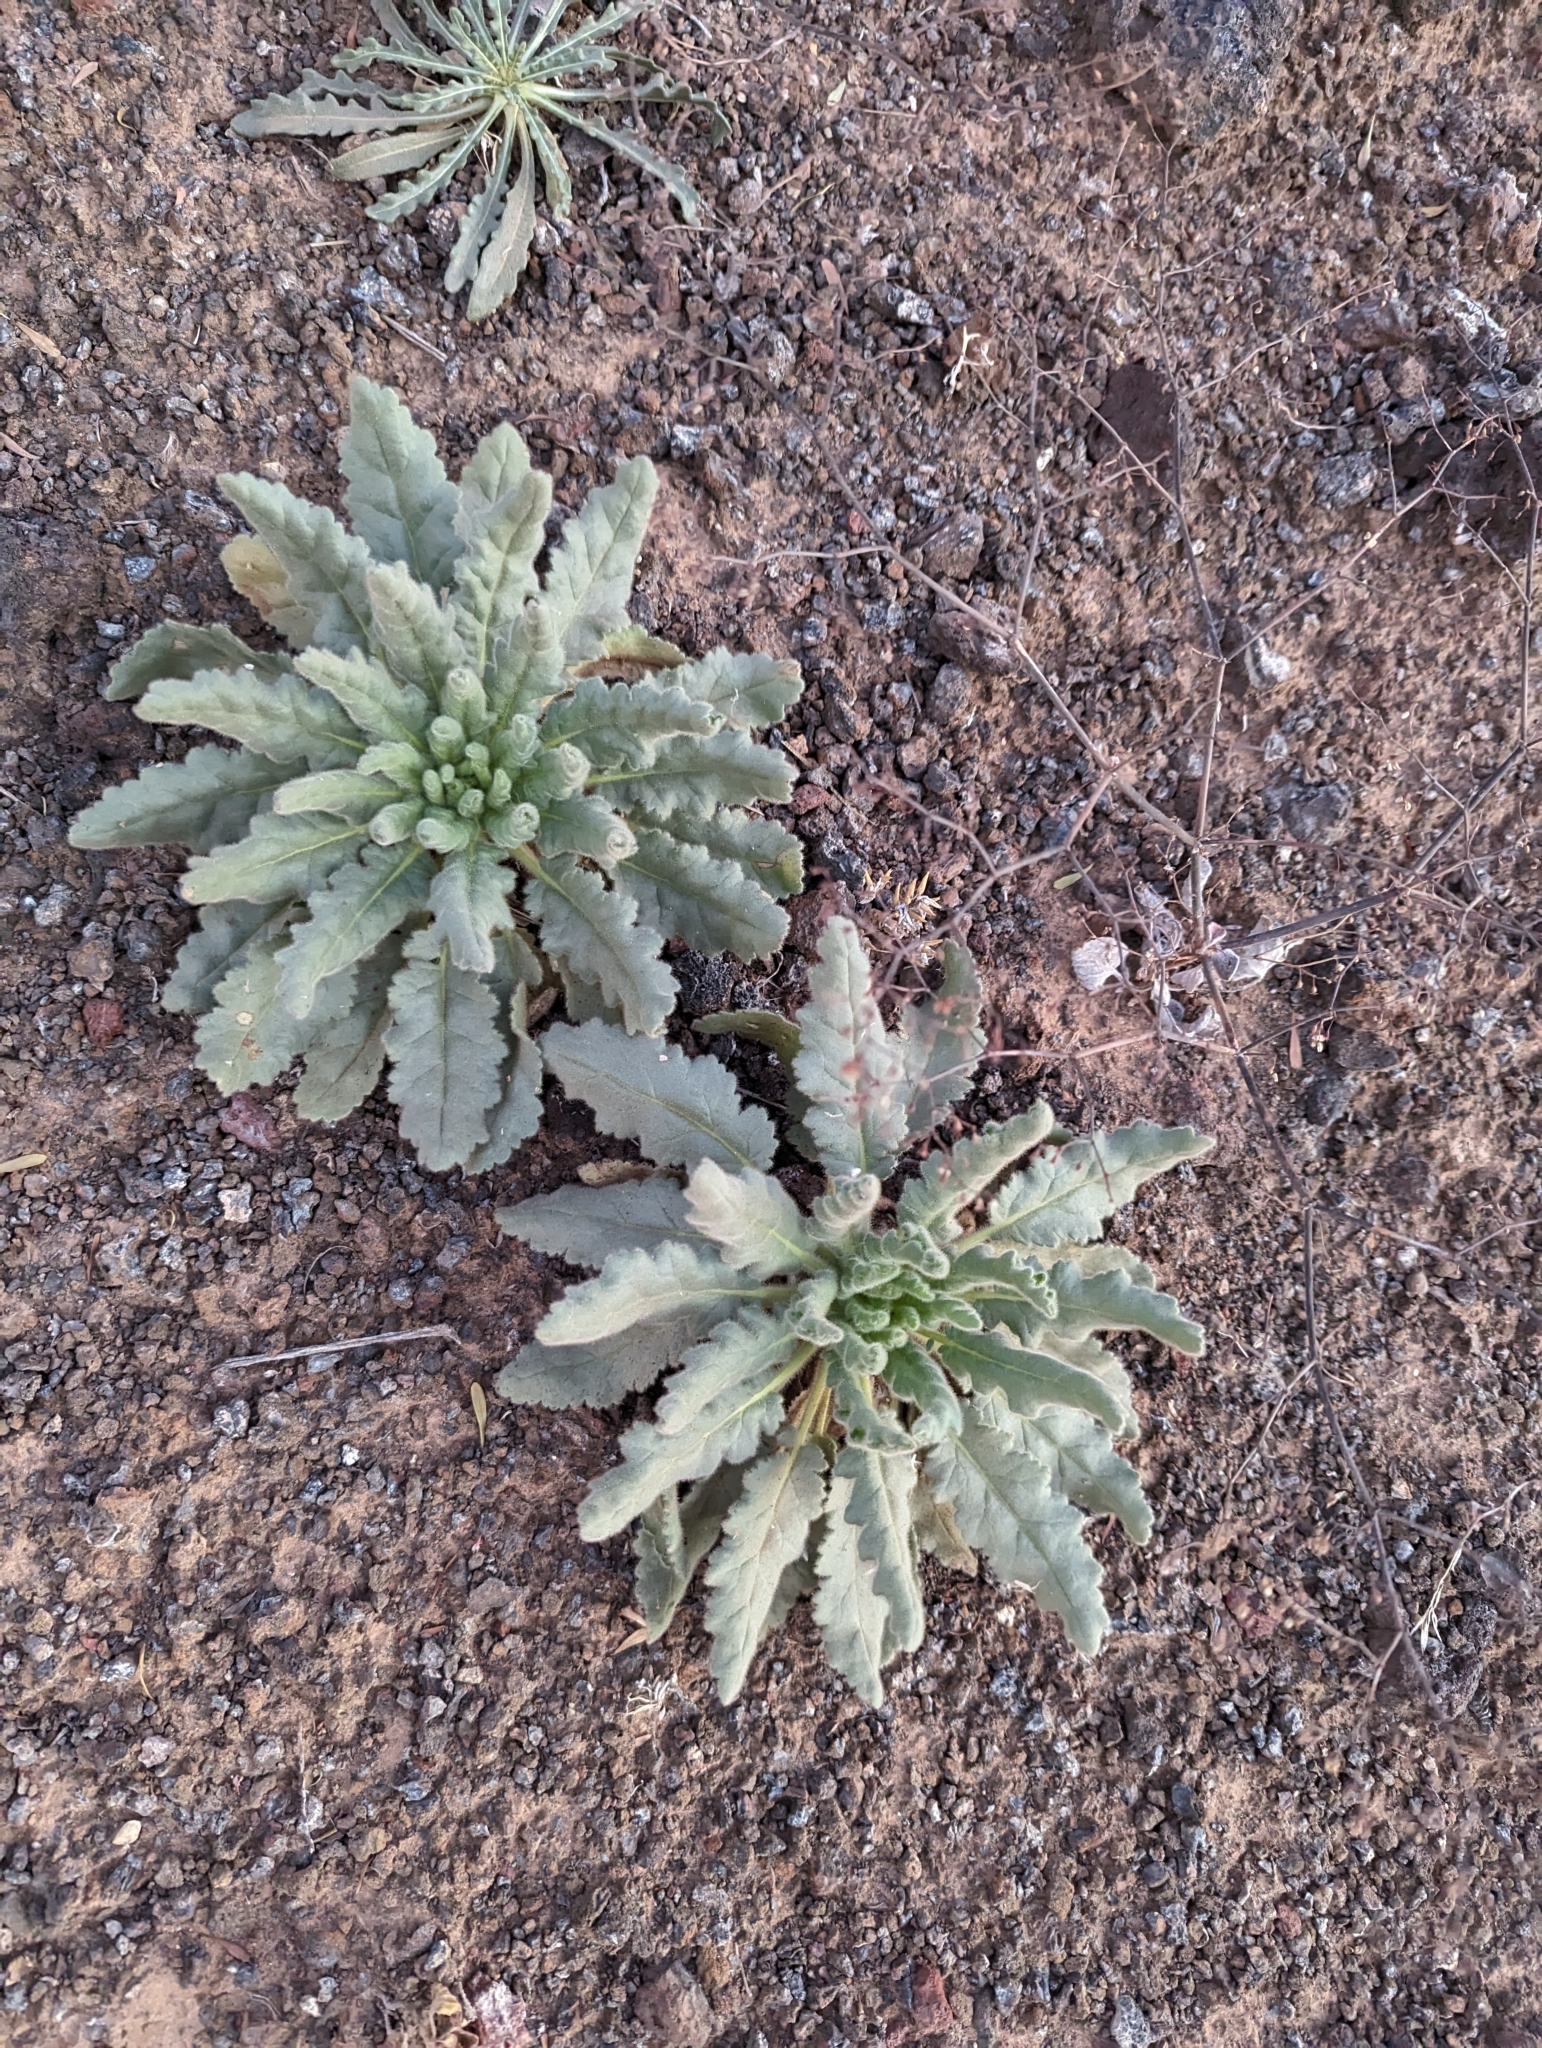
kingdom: Plantae
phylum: Tracheophyta
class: Magnoliopsida
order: Boraginales
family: Hydrophyllaceae
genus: Phacelia
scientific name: Phacelia integrifolia
